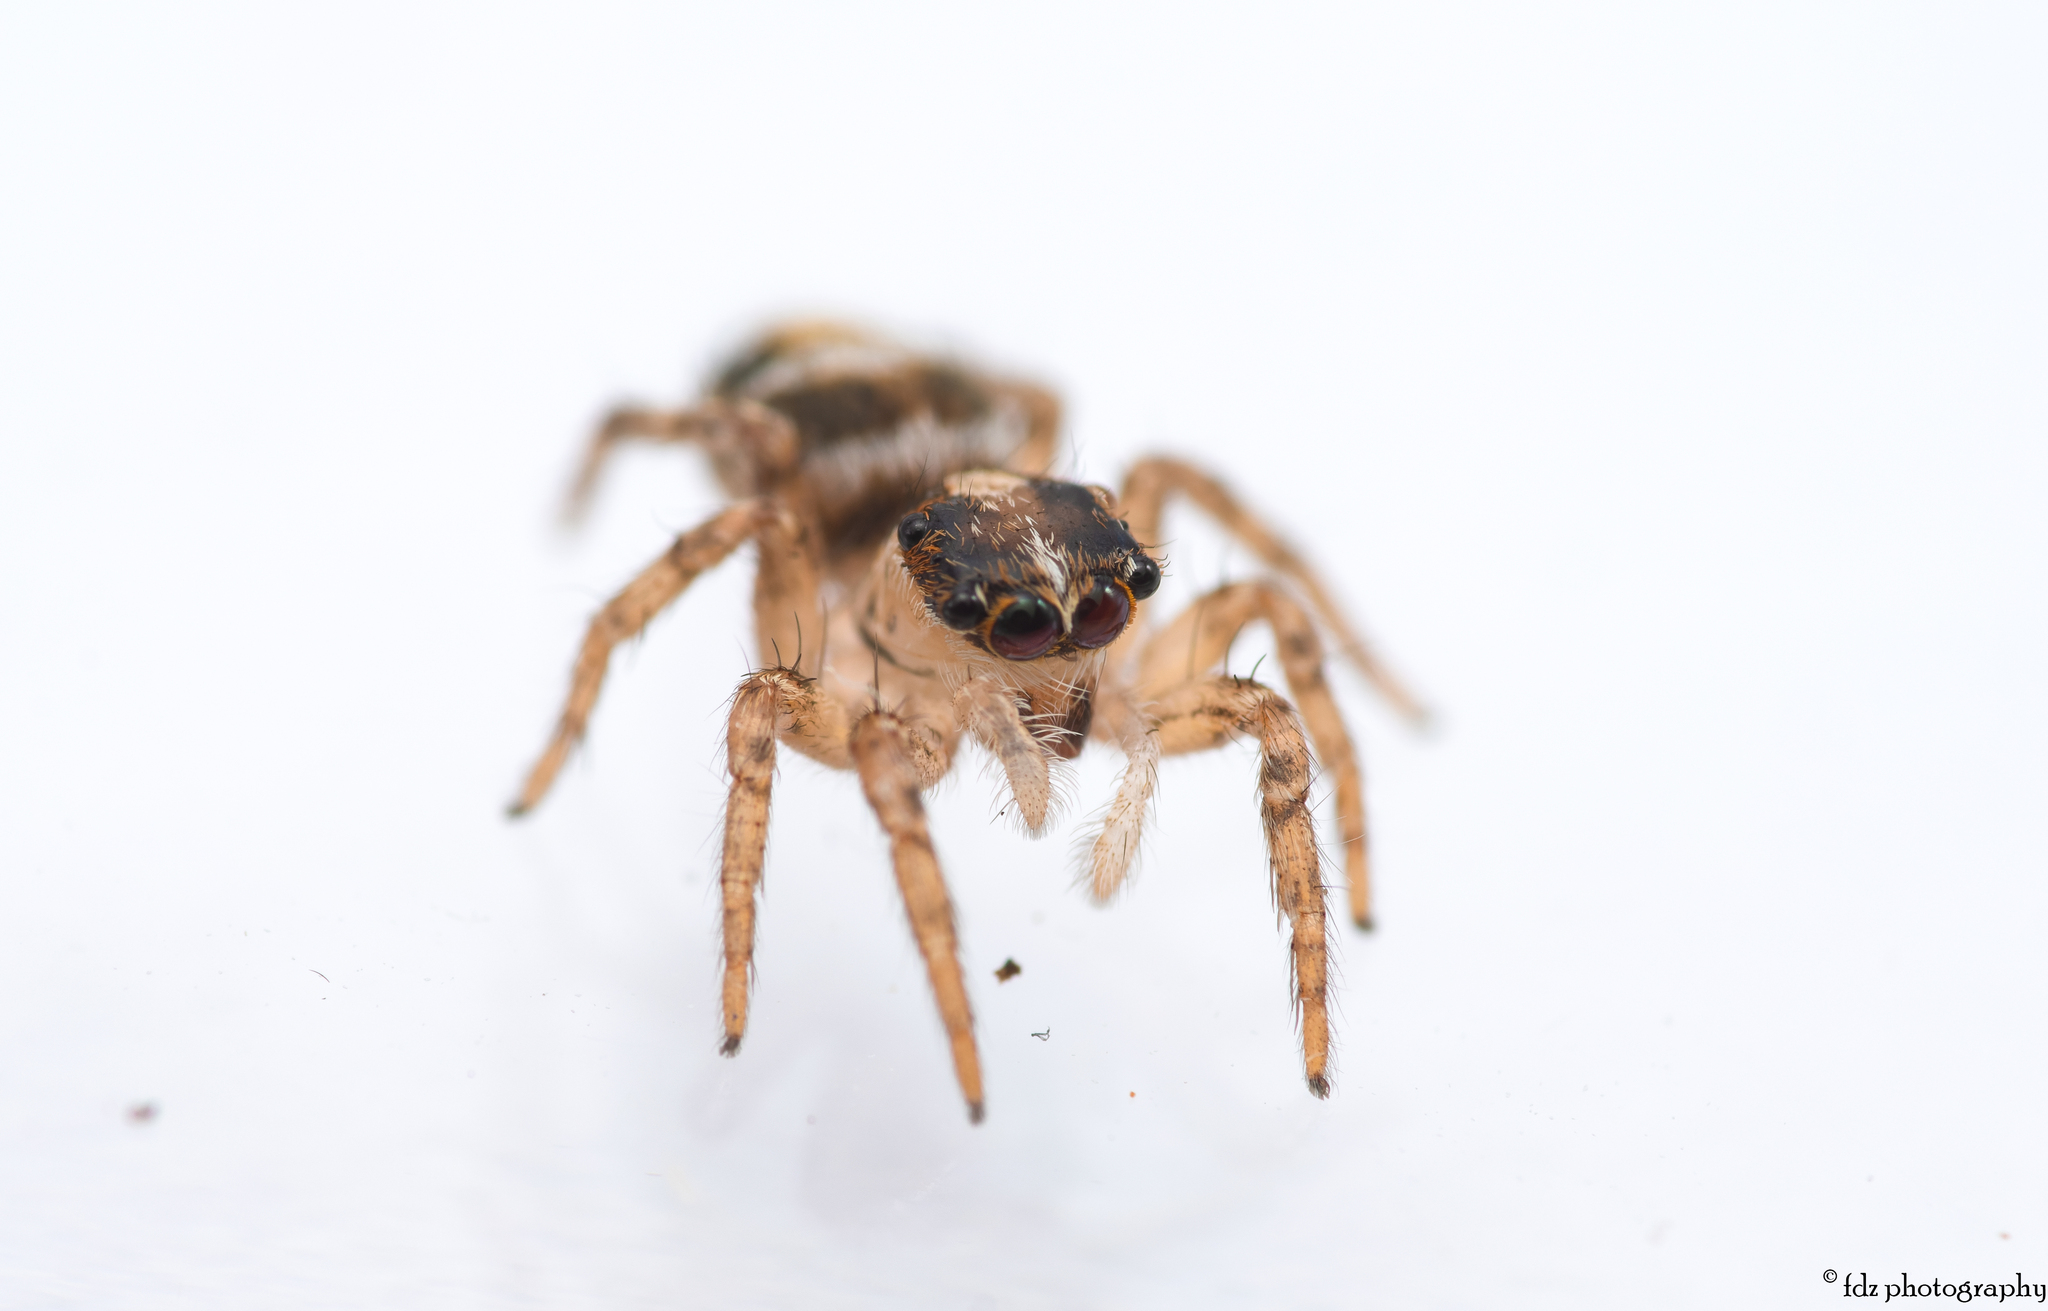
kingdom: Animalia
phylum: Arthropoda
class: Arachnida
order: Araneae
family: Salticidae
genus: Plexippus
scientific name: Plexippus paykulli
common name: Pantropical jumper
